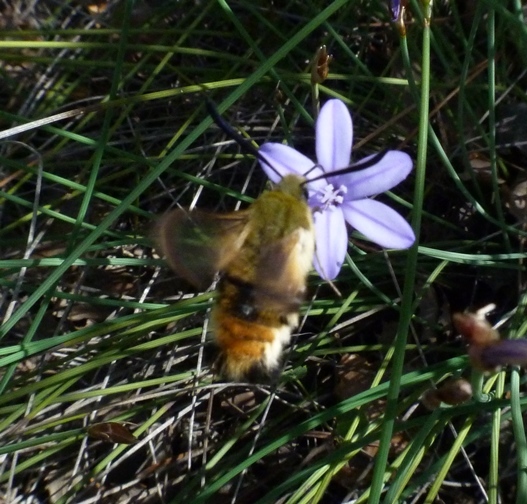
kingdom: Animalia
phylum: Arthropoda
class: Insecta
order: Lepidoptera
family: Sphingidae
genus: Hemaris
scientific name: Hemaris tityus
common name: Narrow-bordered bee hawk-moth
